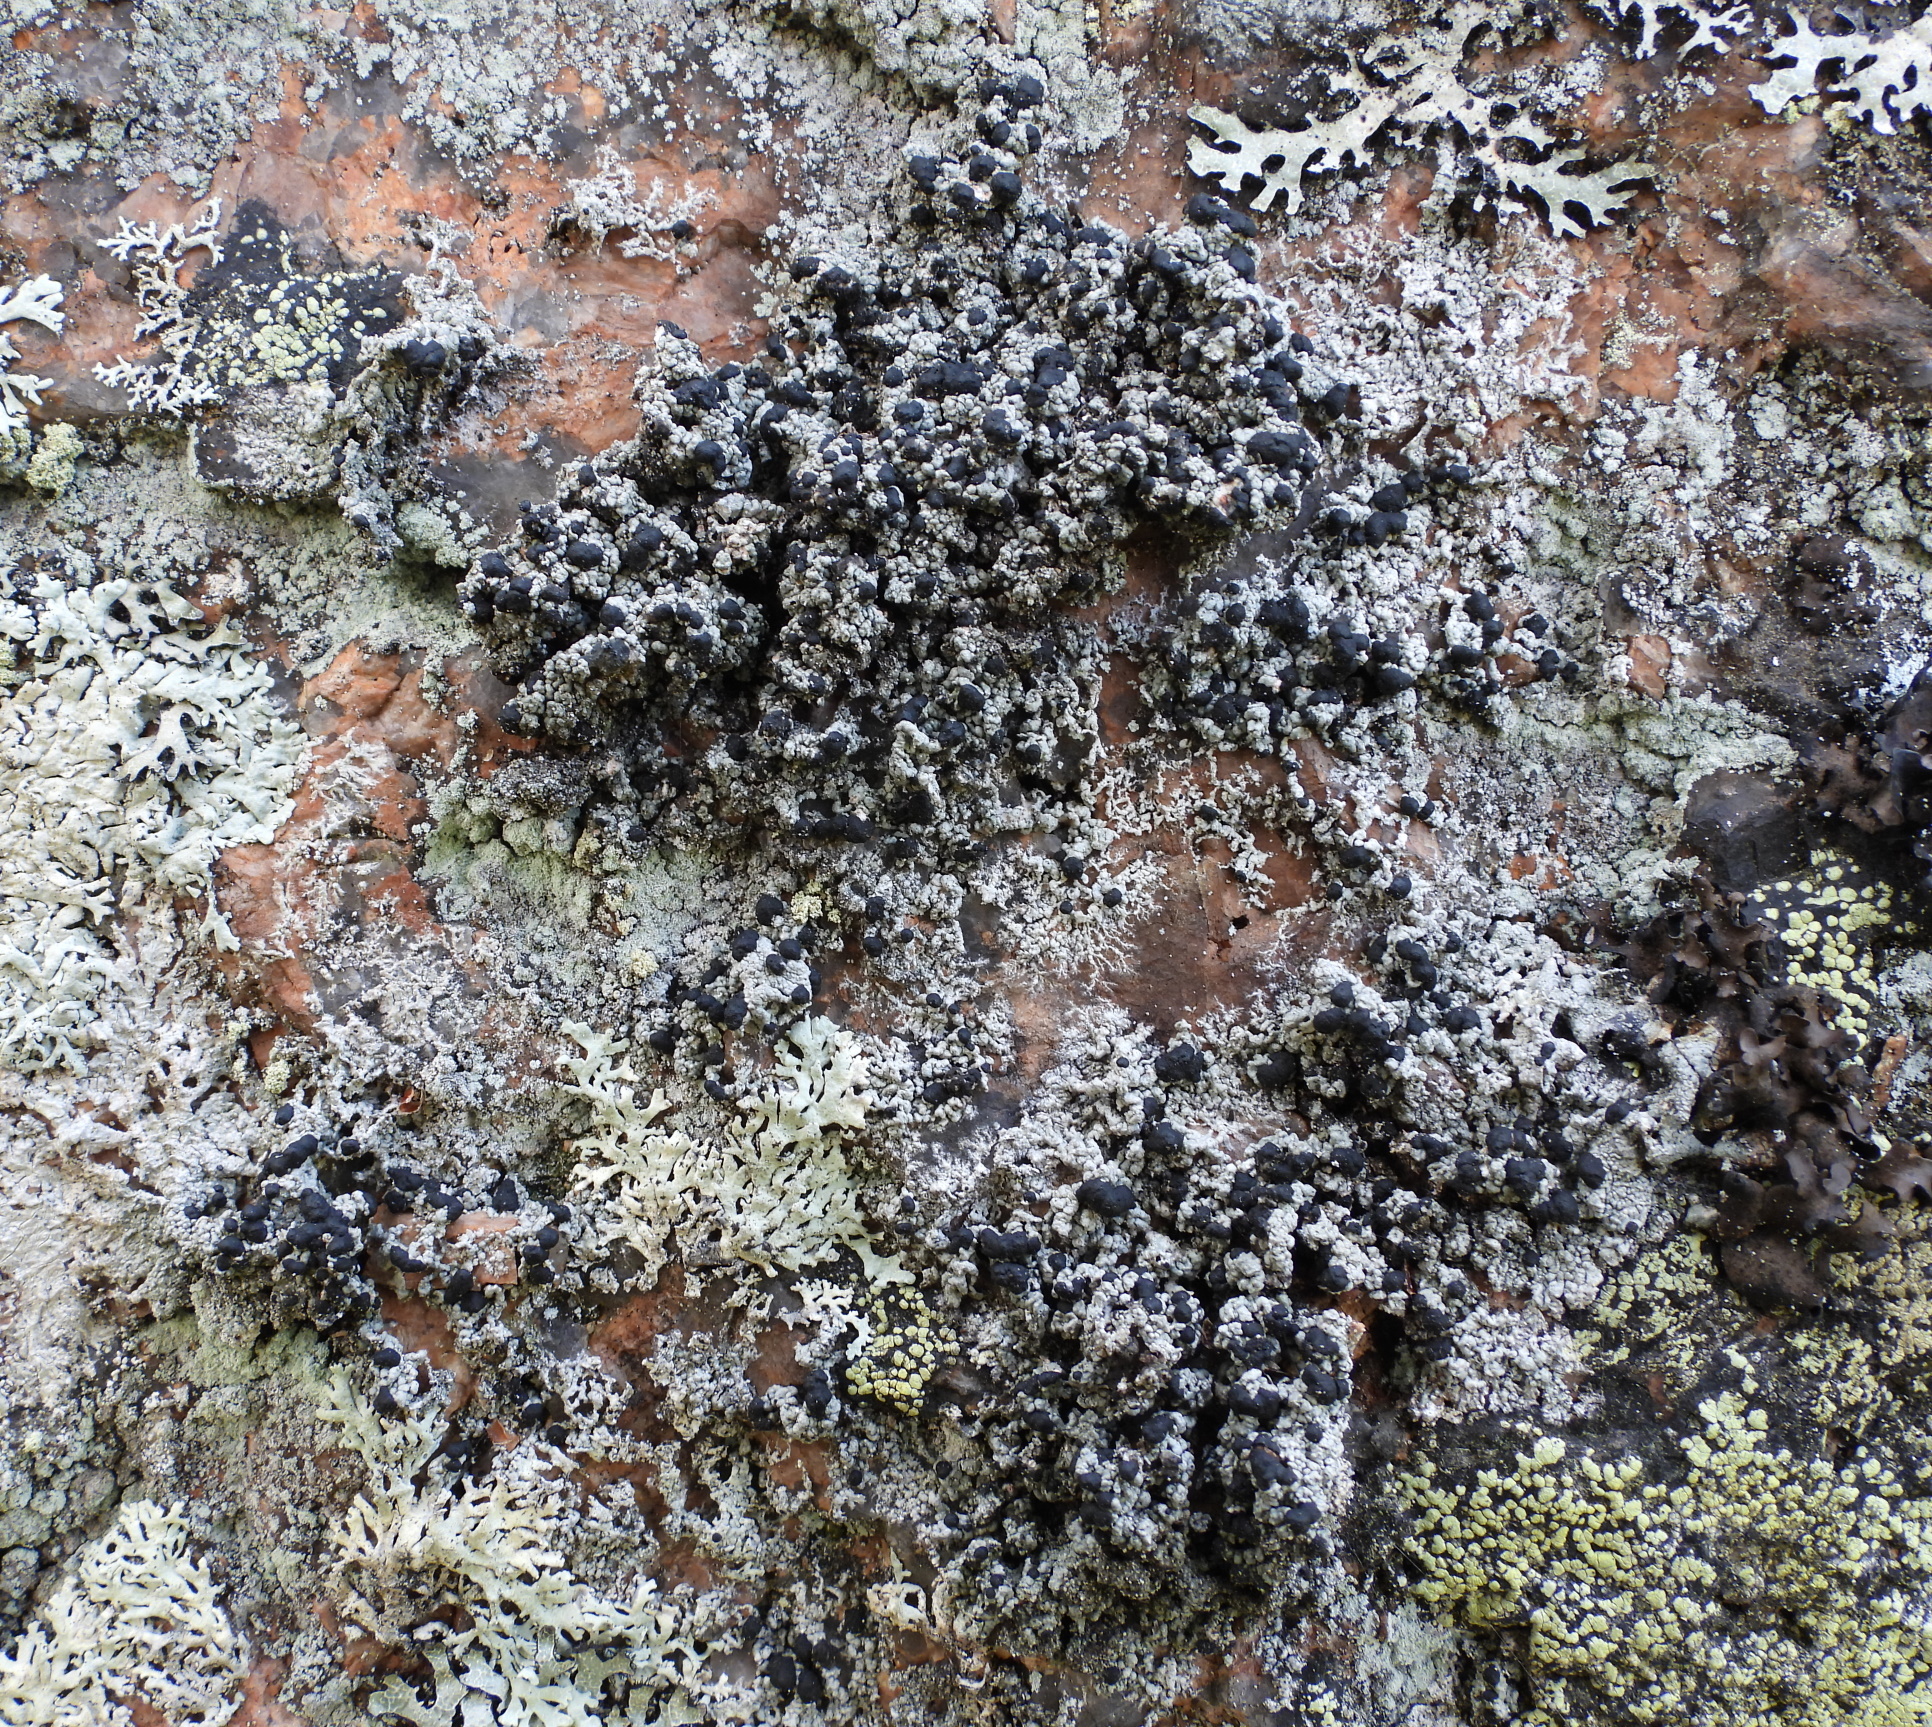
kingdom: Fungi
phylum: Ascomycota
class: Lecanoromycetes
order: Lecanorales
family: Tephromelataceae
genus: Mycoblastus
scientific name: Mycoblastus sanguinarius
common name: Bloody-heart lichen
